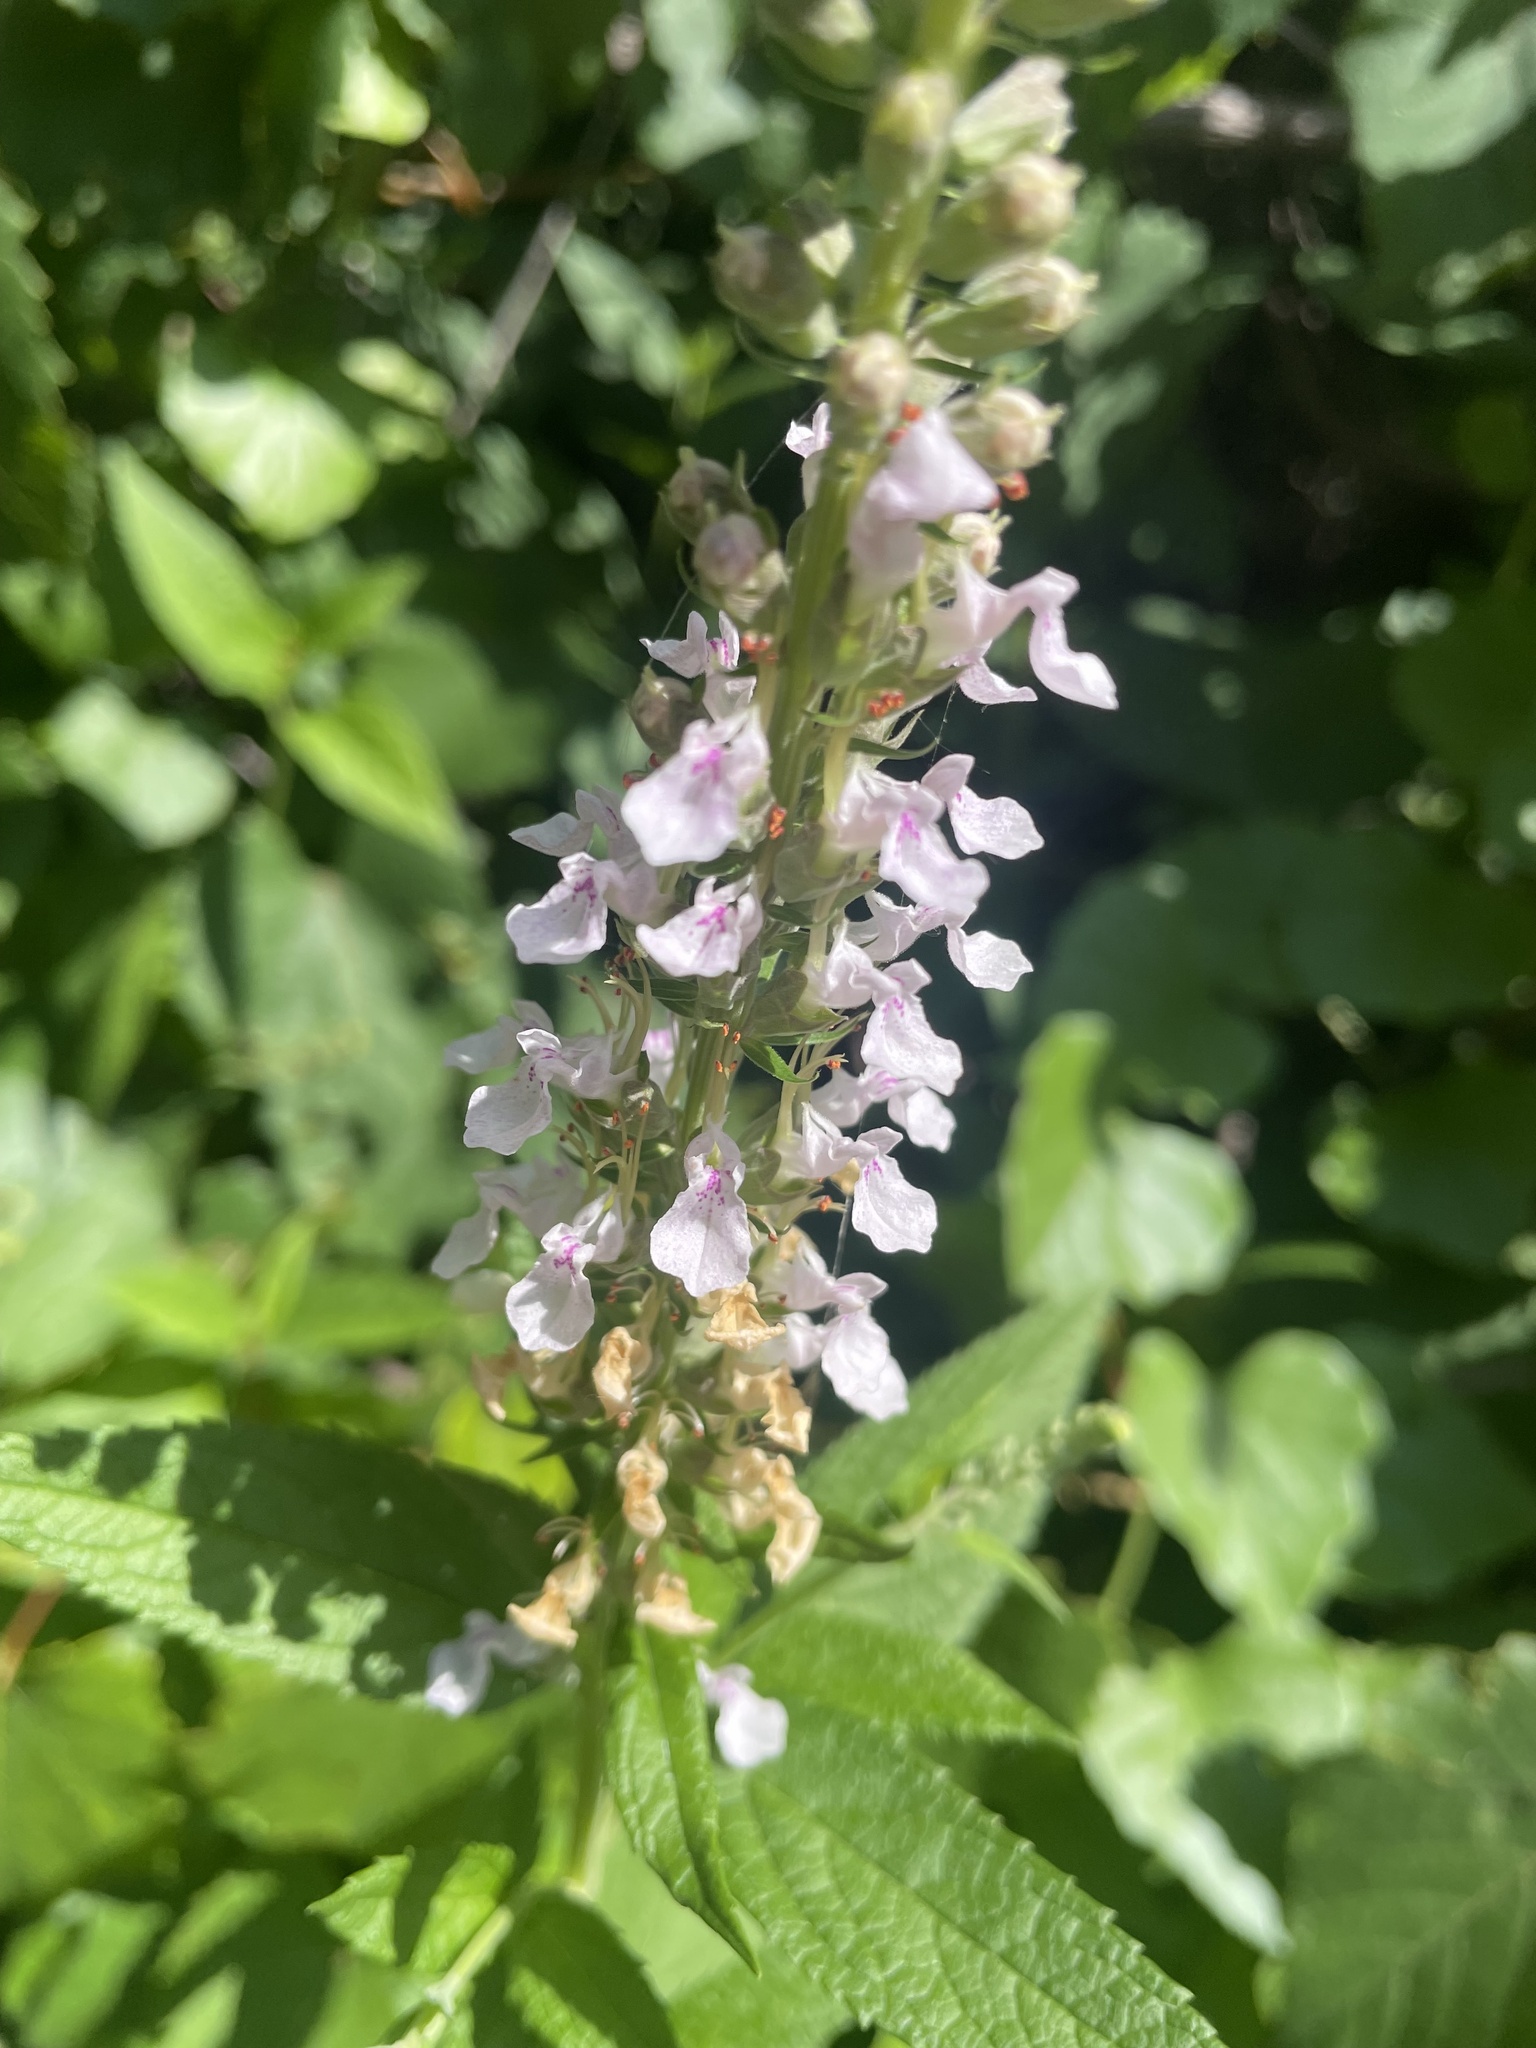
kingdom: Plantae
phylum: Tracheophyta
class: Magnoliopsida
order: Lamiales
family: Lamiaceae
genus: Teucrium
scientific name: Teucrium canadense
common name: American germander
